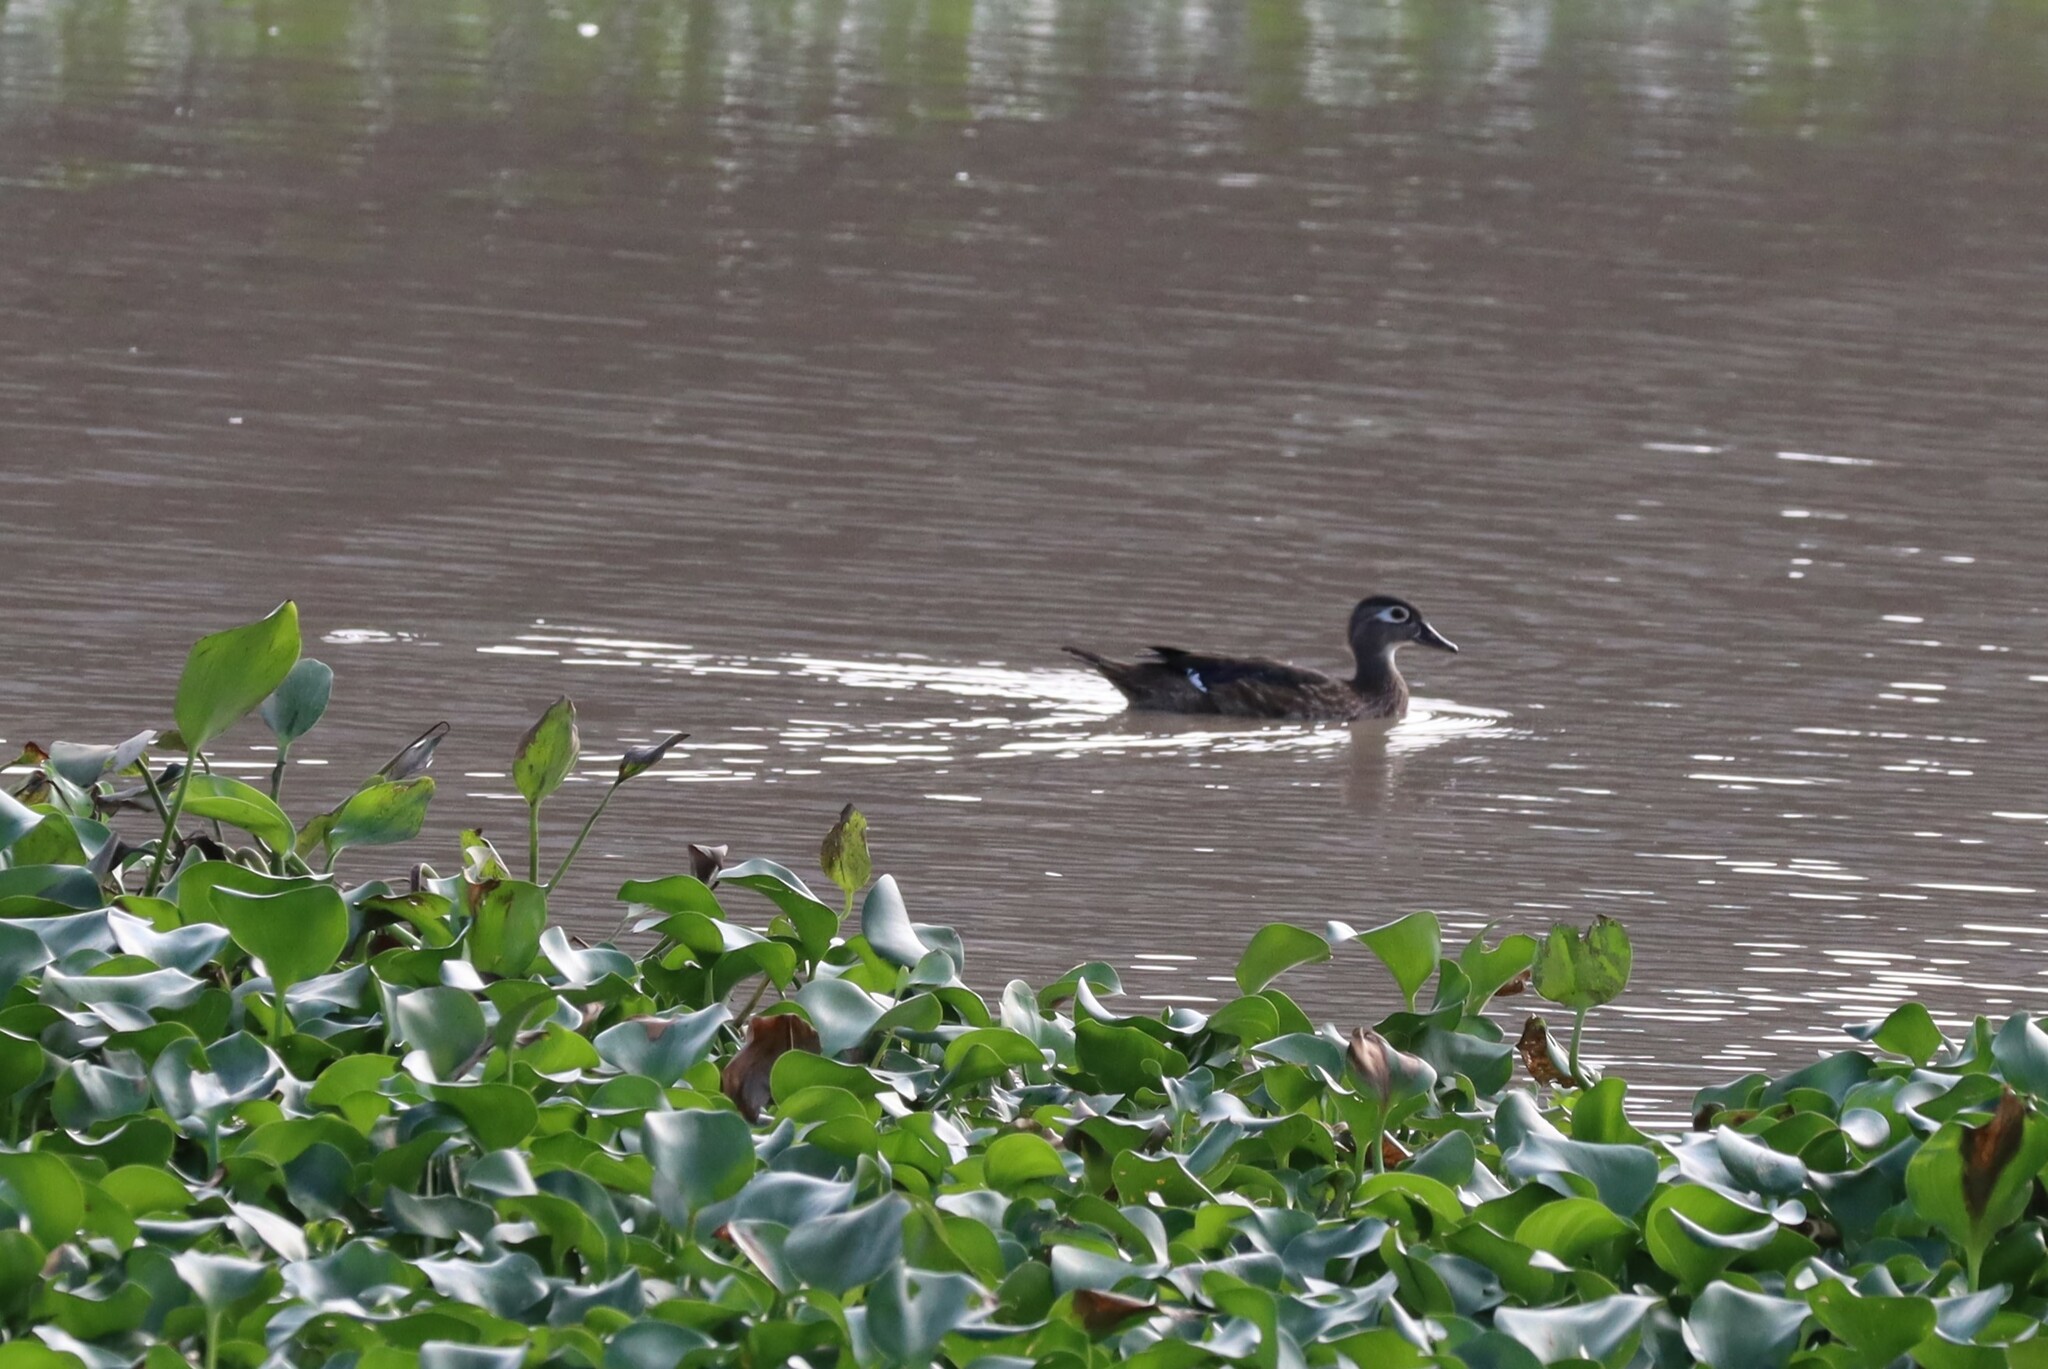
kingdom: Animalia
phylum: Chordata
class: Aves
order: Anseriformes
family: Anatidae
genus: Aix
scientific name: Aix sponsa
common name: Wood duck
